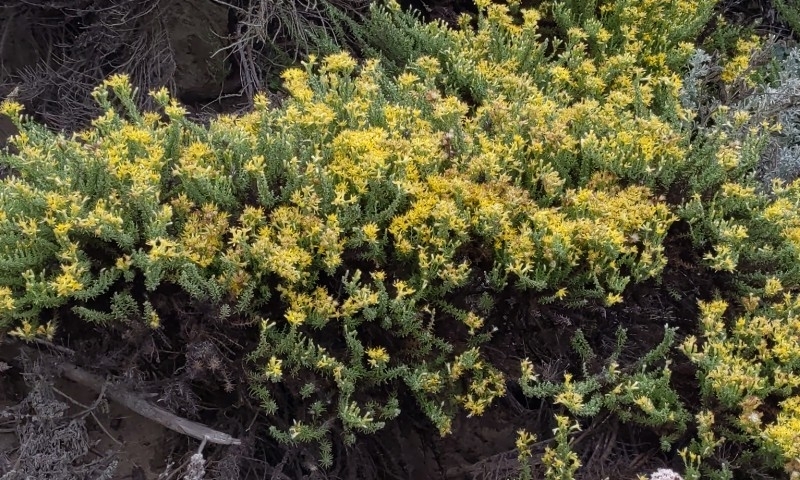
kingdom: Plantae
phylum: Tracheophyta
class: Magnoliopsida
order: Asterales
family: Asteraceae
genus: Ericameria
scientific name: Ericameria ericoides
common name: California goldenbush
